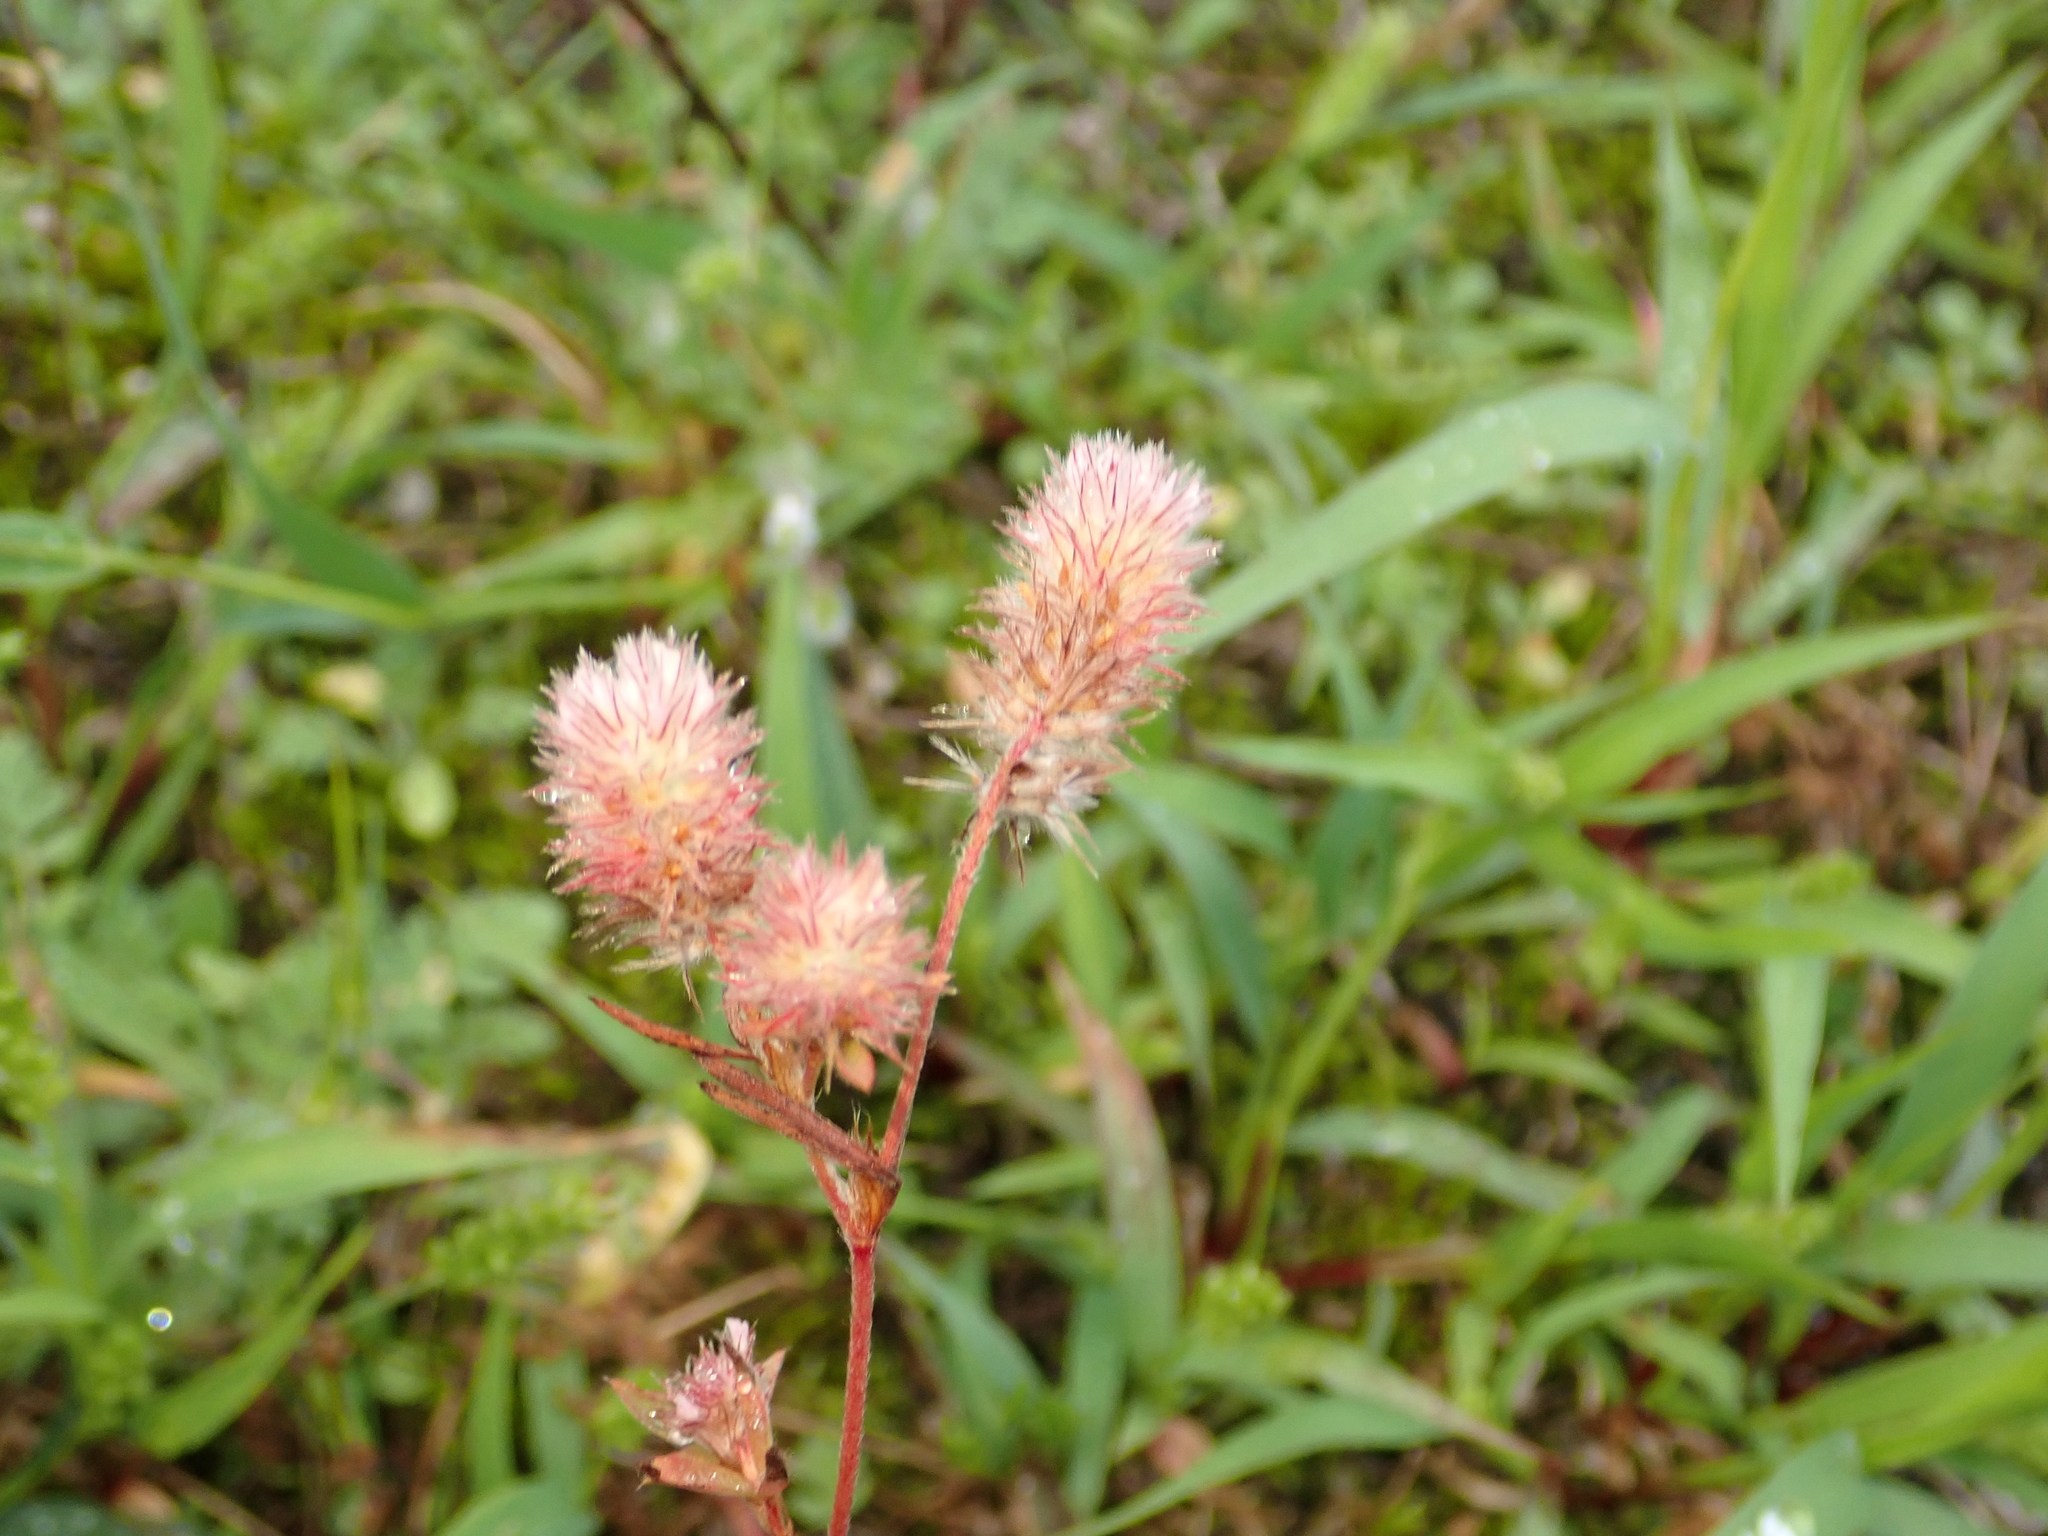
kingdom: Plantae
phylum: Tracheophyta
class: Magnoliopsida
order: Fabales
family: Fabaceae
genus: Trifolium
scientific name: Trifolium arvense
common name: Hare's-foot clover
